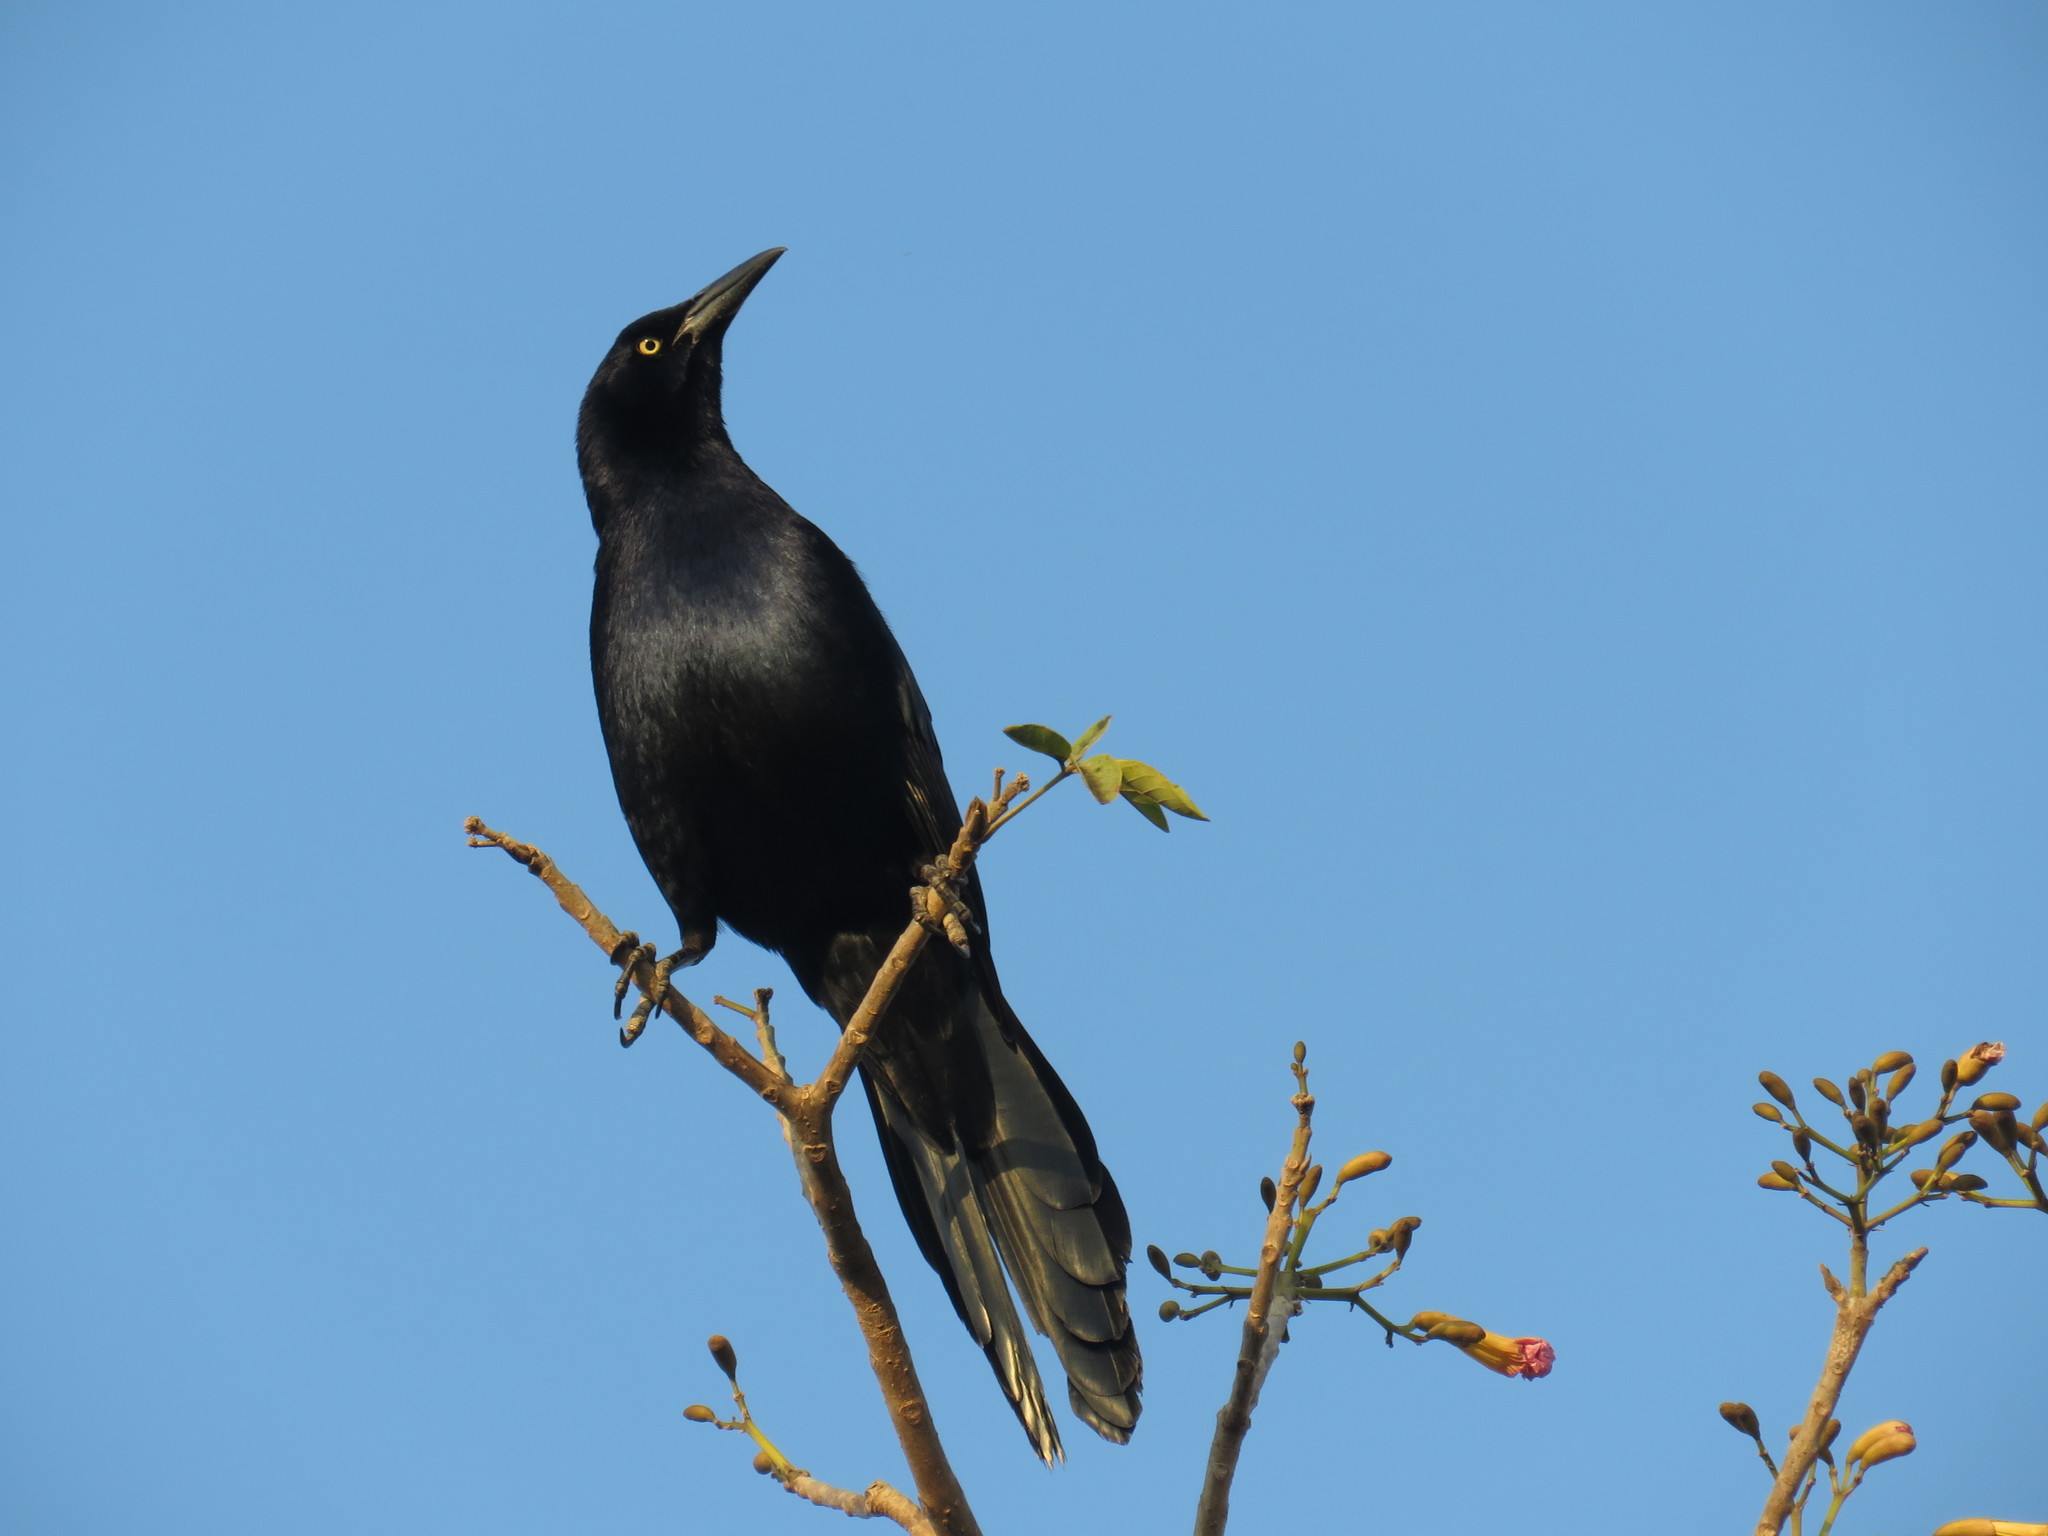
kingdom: Animalia
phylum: Chordata
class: Aves
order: Passeriformes
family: Icteridae
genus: Quiscalus
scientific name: Quiscalus mexicanus
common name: Great-tailed grackle
